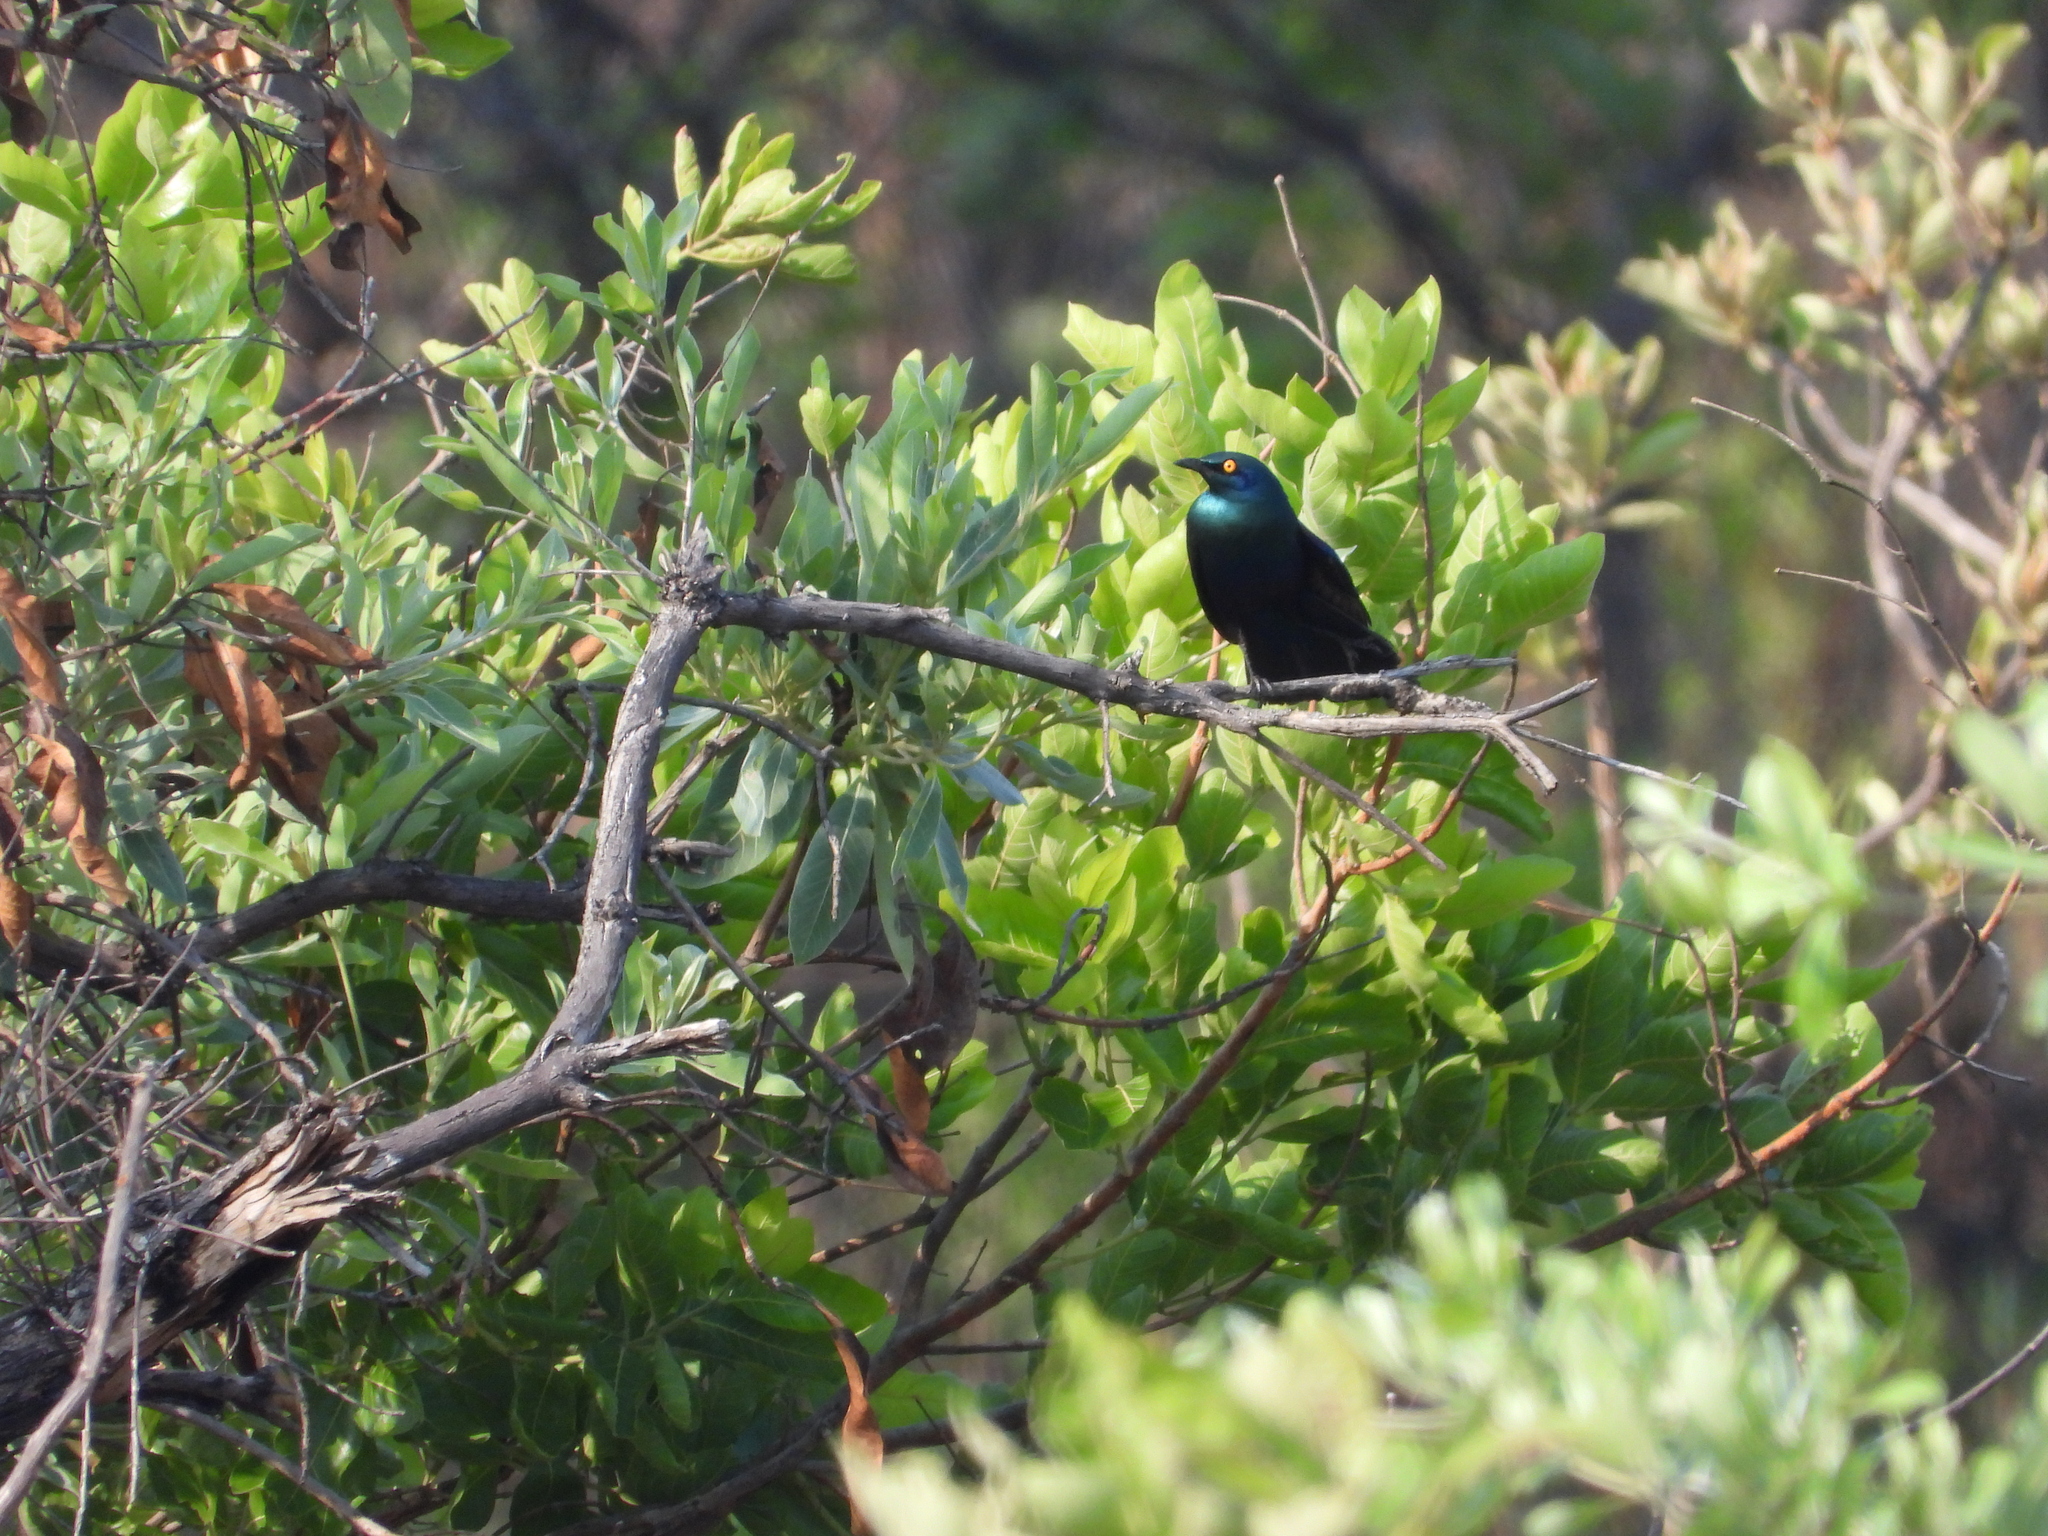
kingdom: Animalia
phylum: Chordata
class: Aves
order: Passeriformes
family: Sturnidae
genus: Lamprotornis
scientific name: Lamprotornis chalybaeus
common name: Greater blue-eared starling
